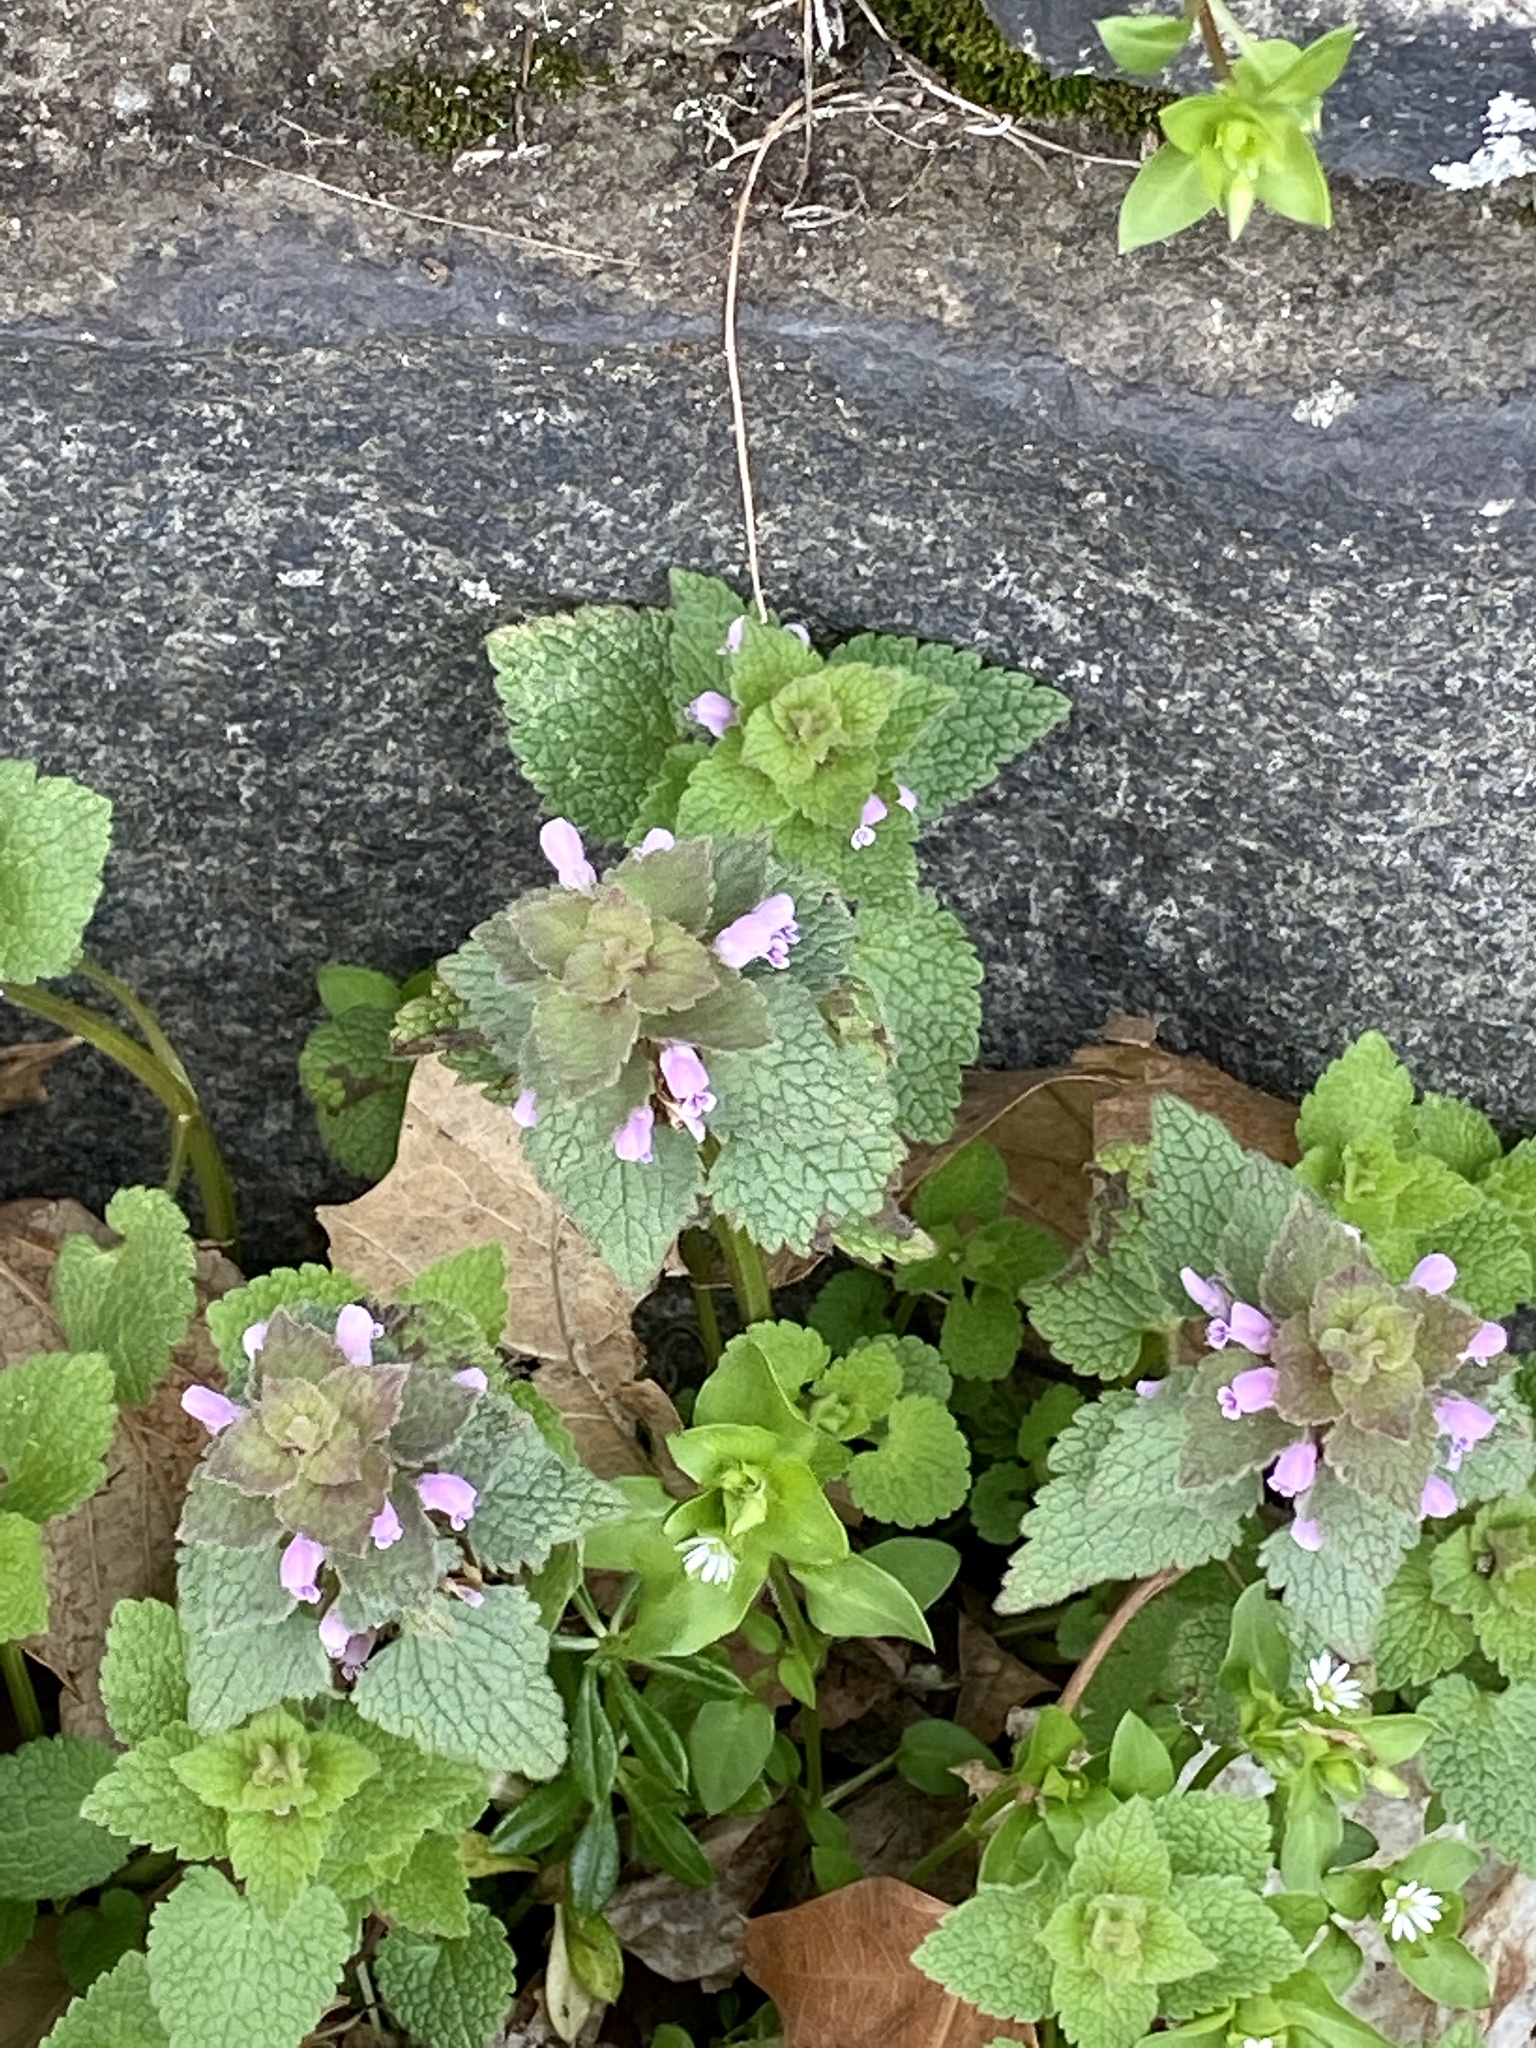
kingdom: Plantae
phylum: Tracheophyta
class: Magnoliopsida
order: Lamiales
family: Lamiaceae
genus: Lamium
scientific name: Lamium purpureum
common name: Red dead-nettle
